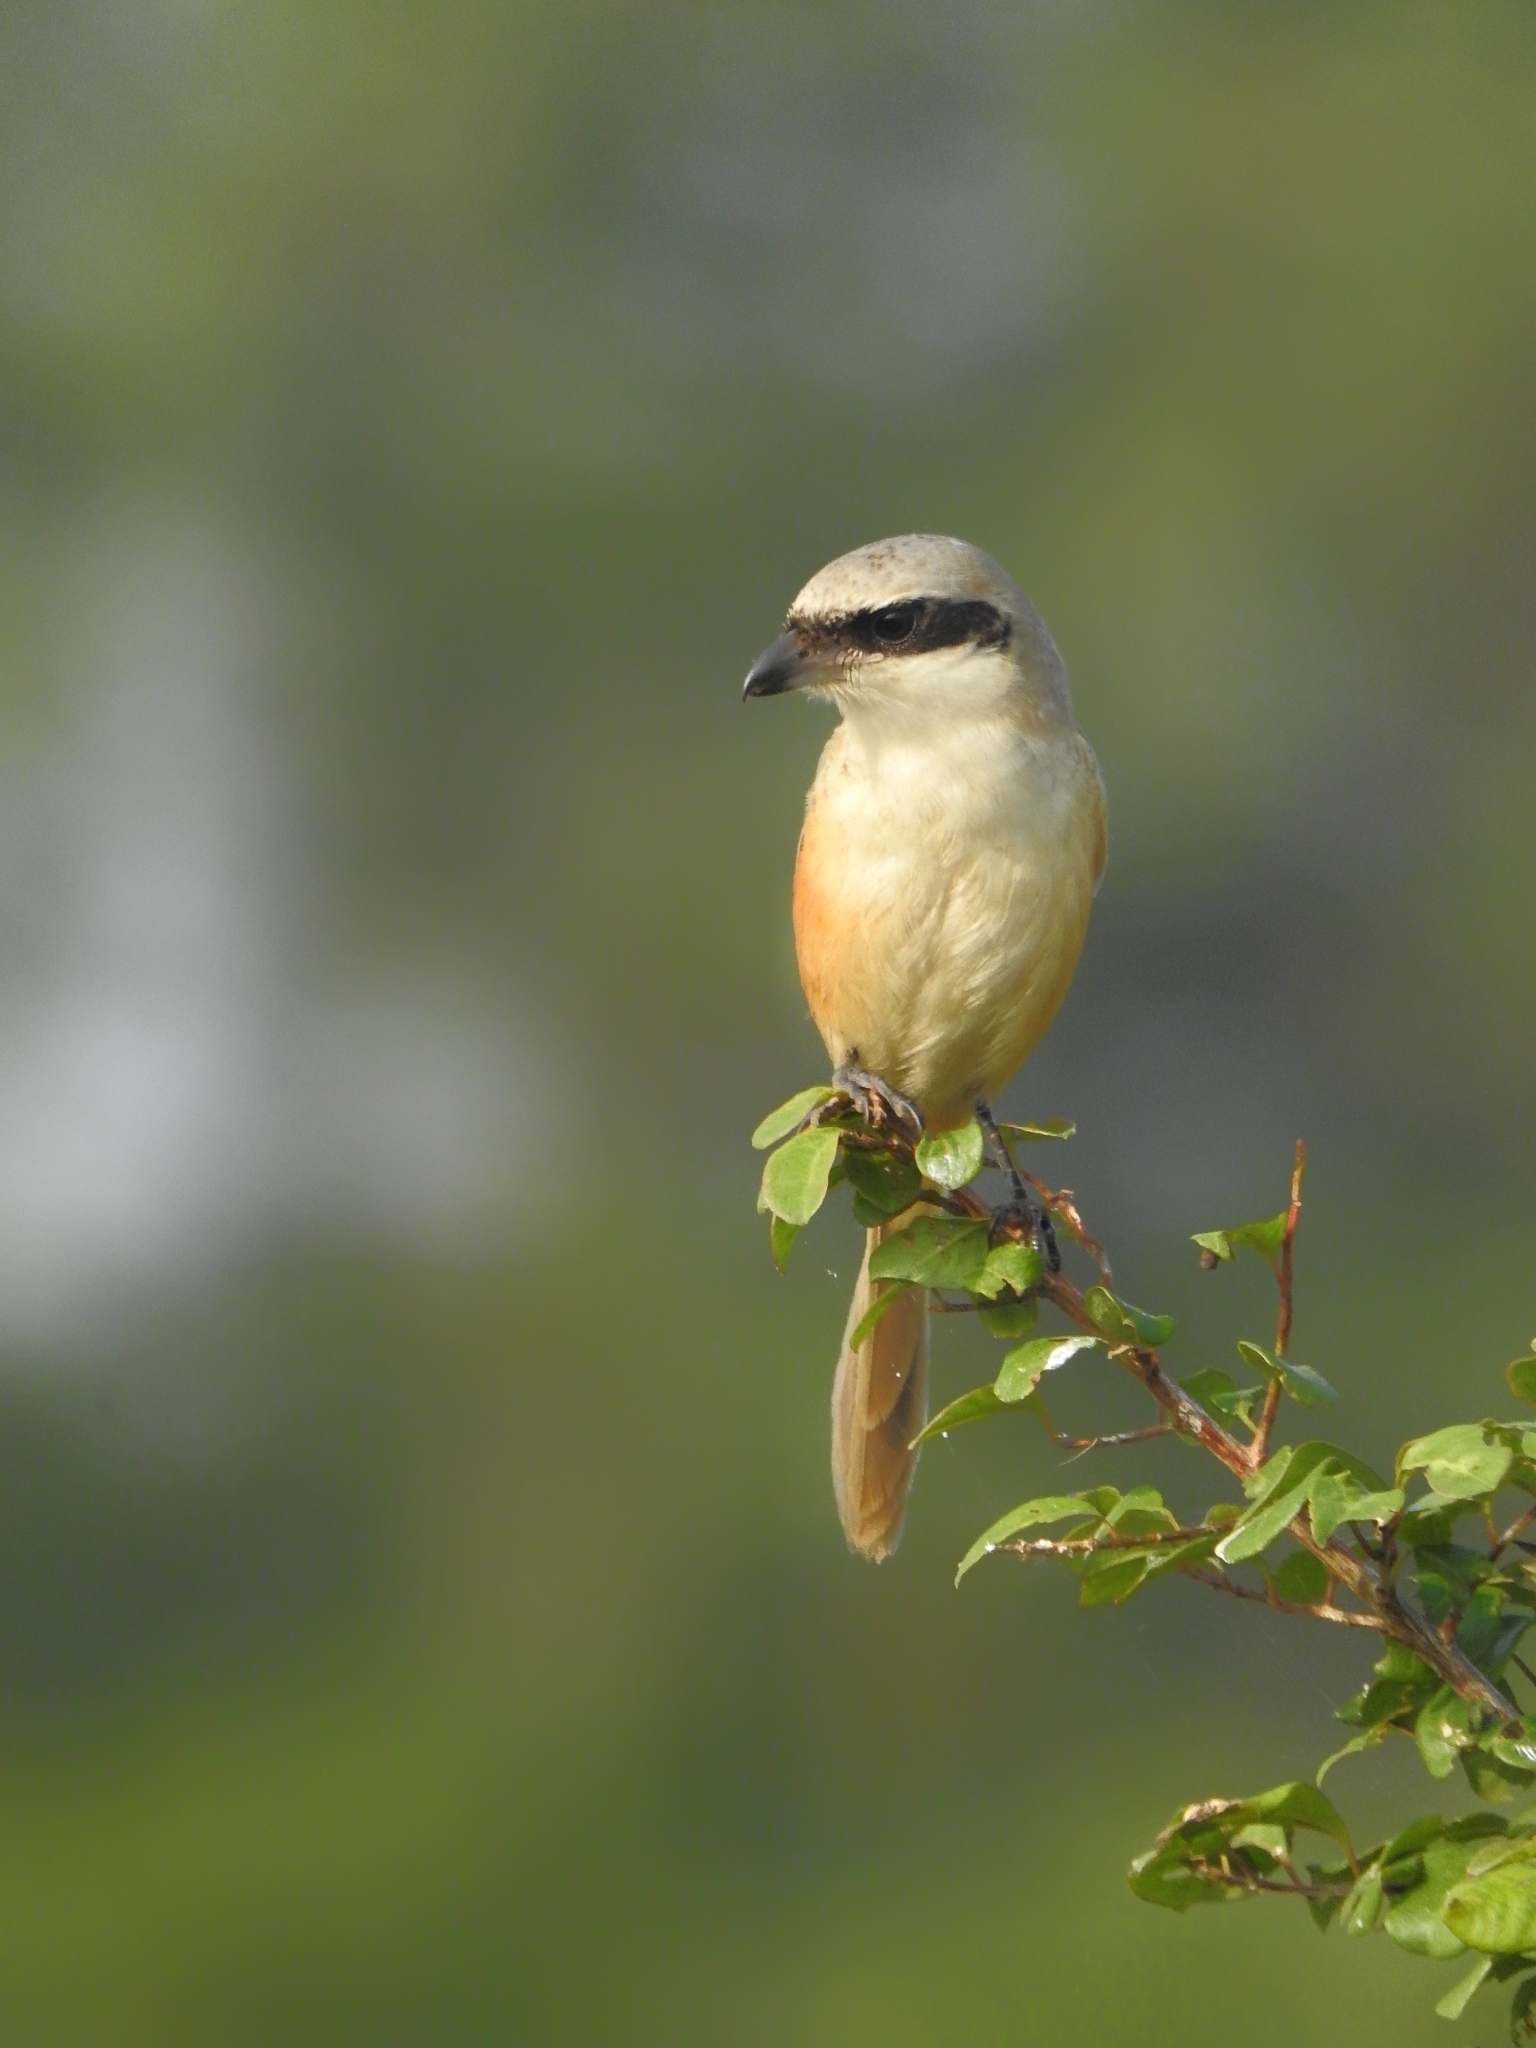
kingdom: Animalia
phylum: Chordata
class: Aves
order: Passeriformes
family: Laniidae
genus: Lanius
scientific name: Lanius schach
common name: Long-tailed shrike
